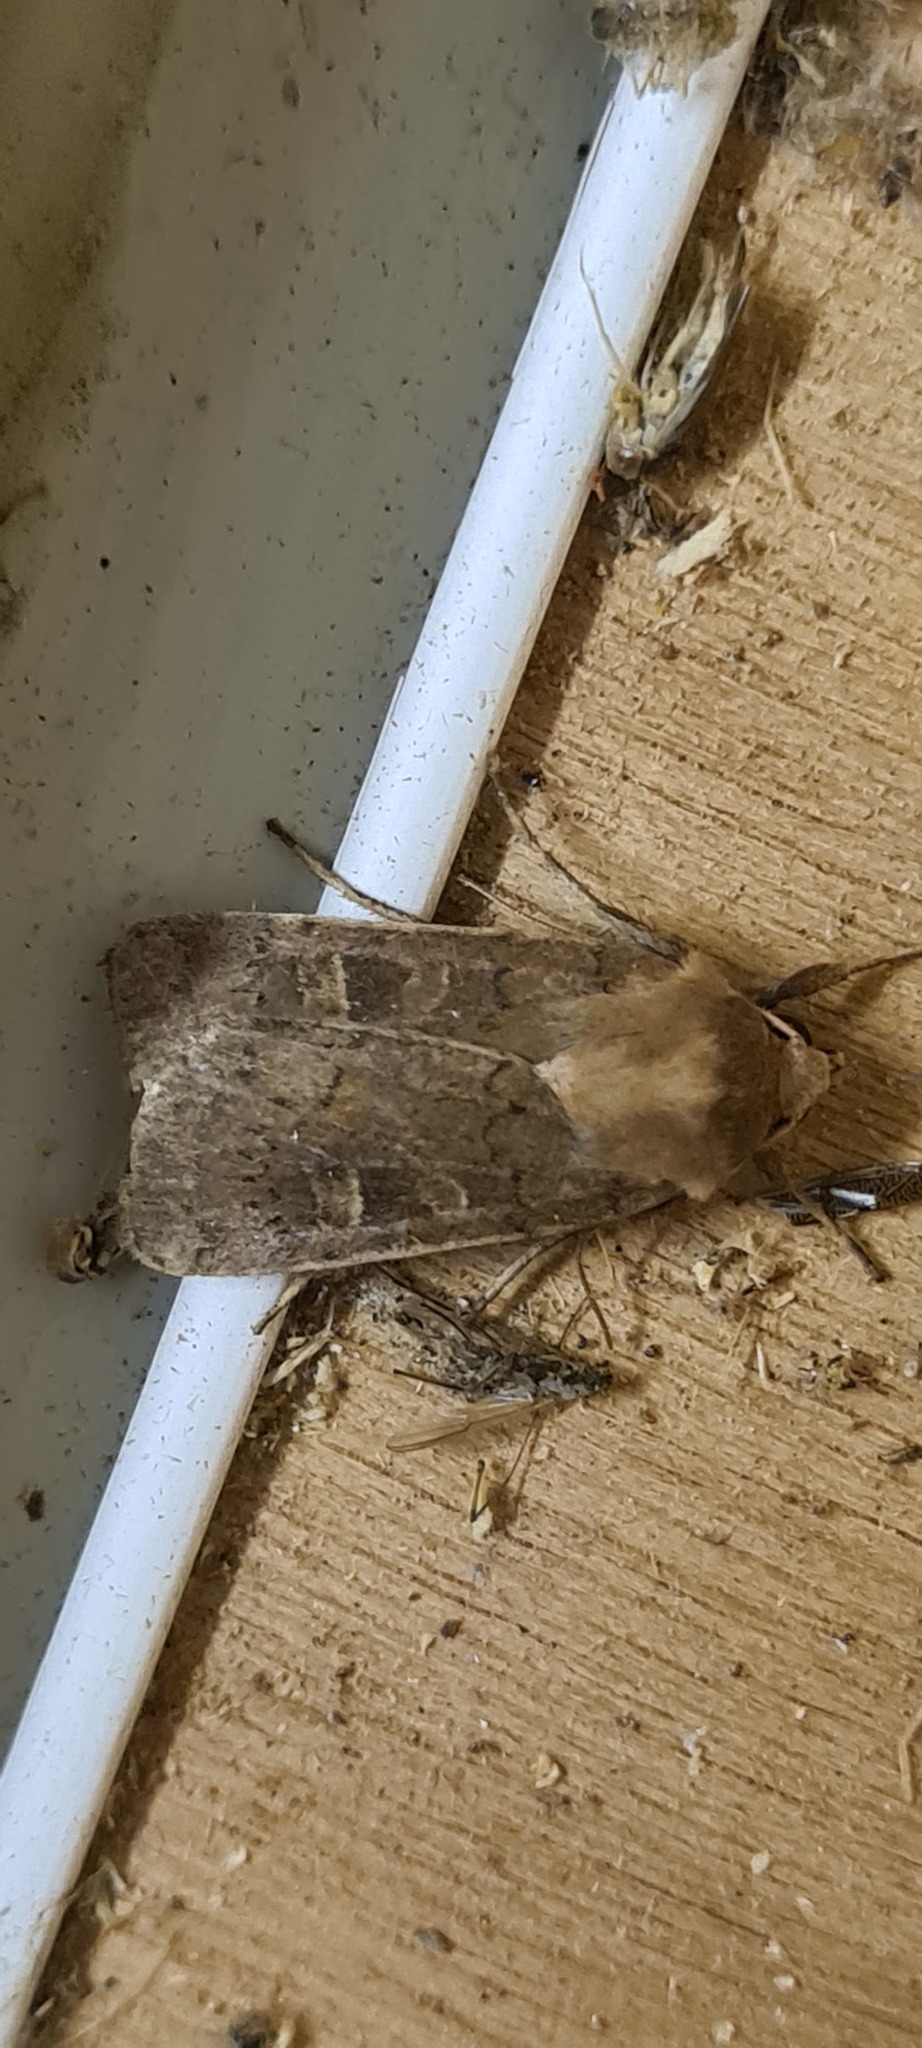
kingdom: Animalia
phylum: Arthropoda
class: Insecta
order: Lepidoptera
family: Noctuidae
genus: Xestia
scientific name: Xestia xanthographa
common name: Square-spot rustic
